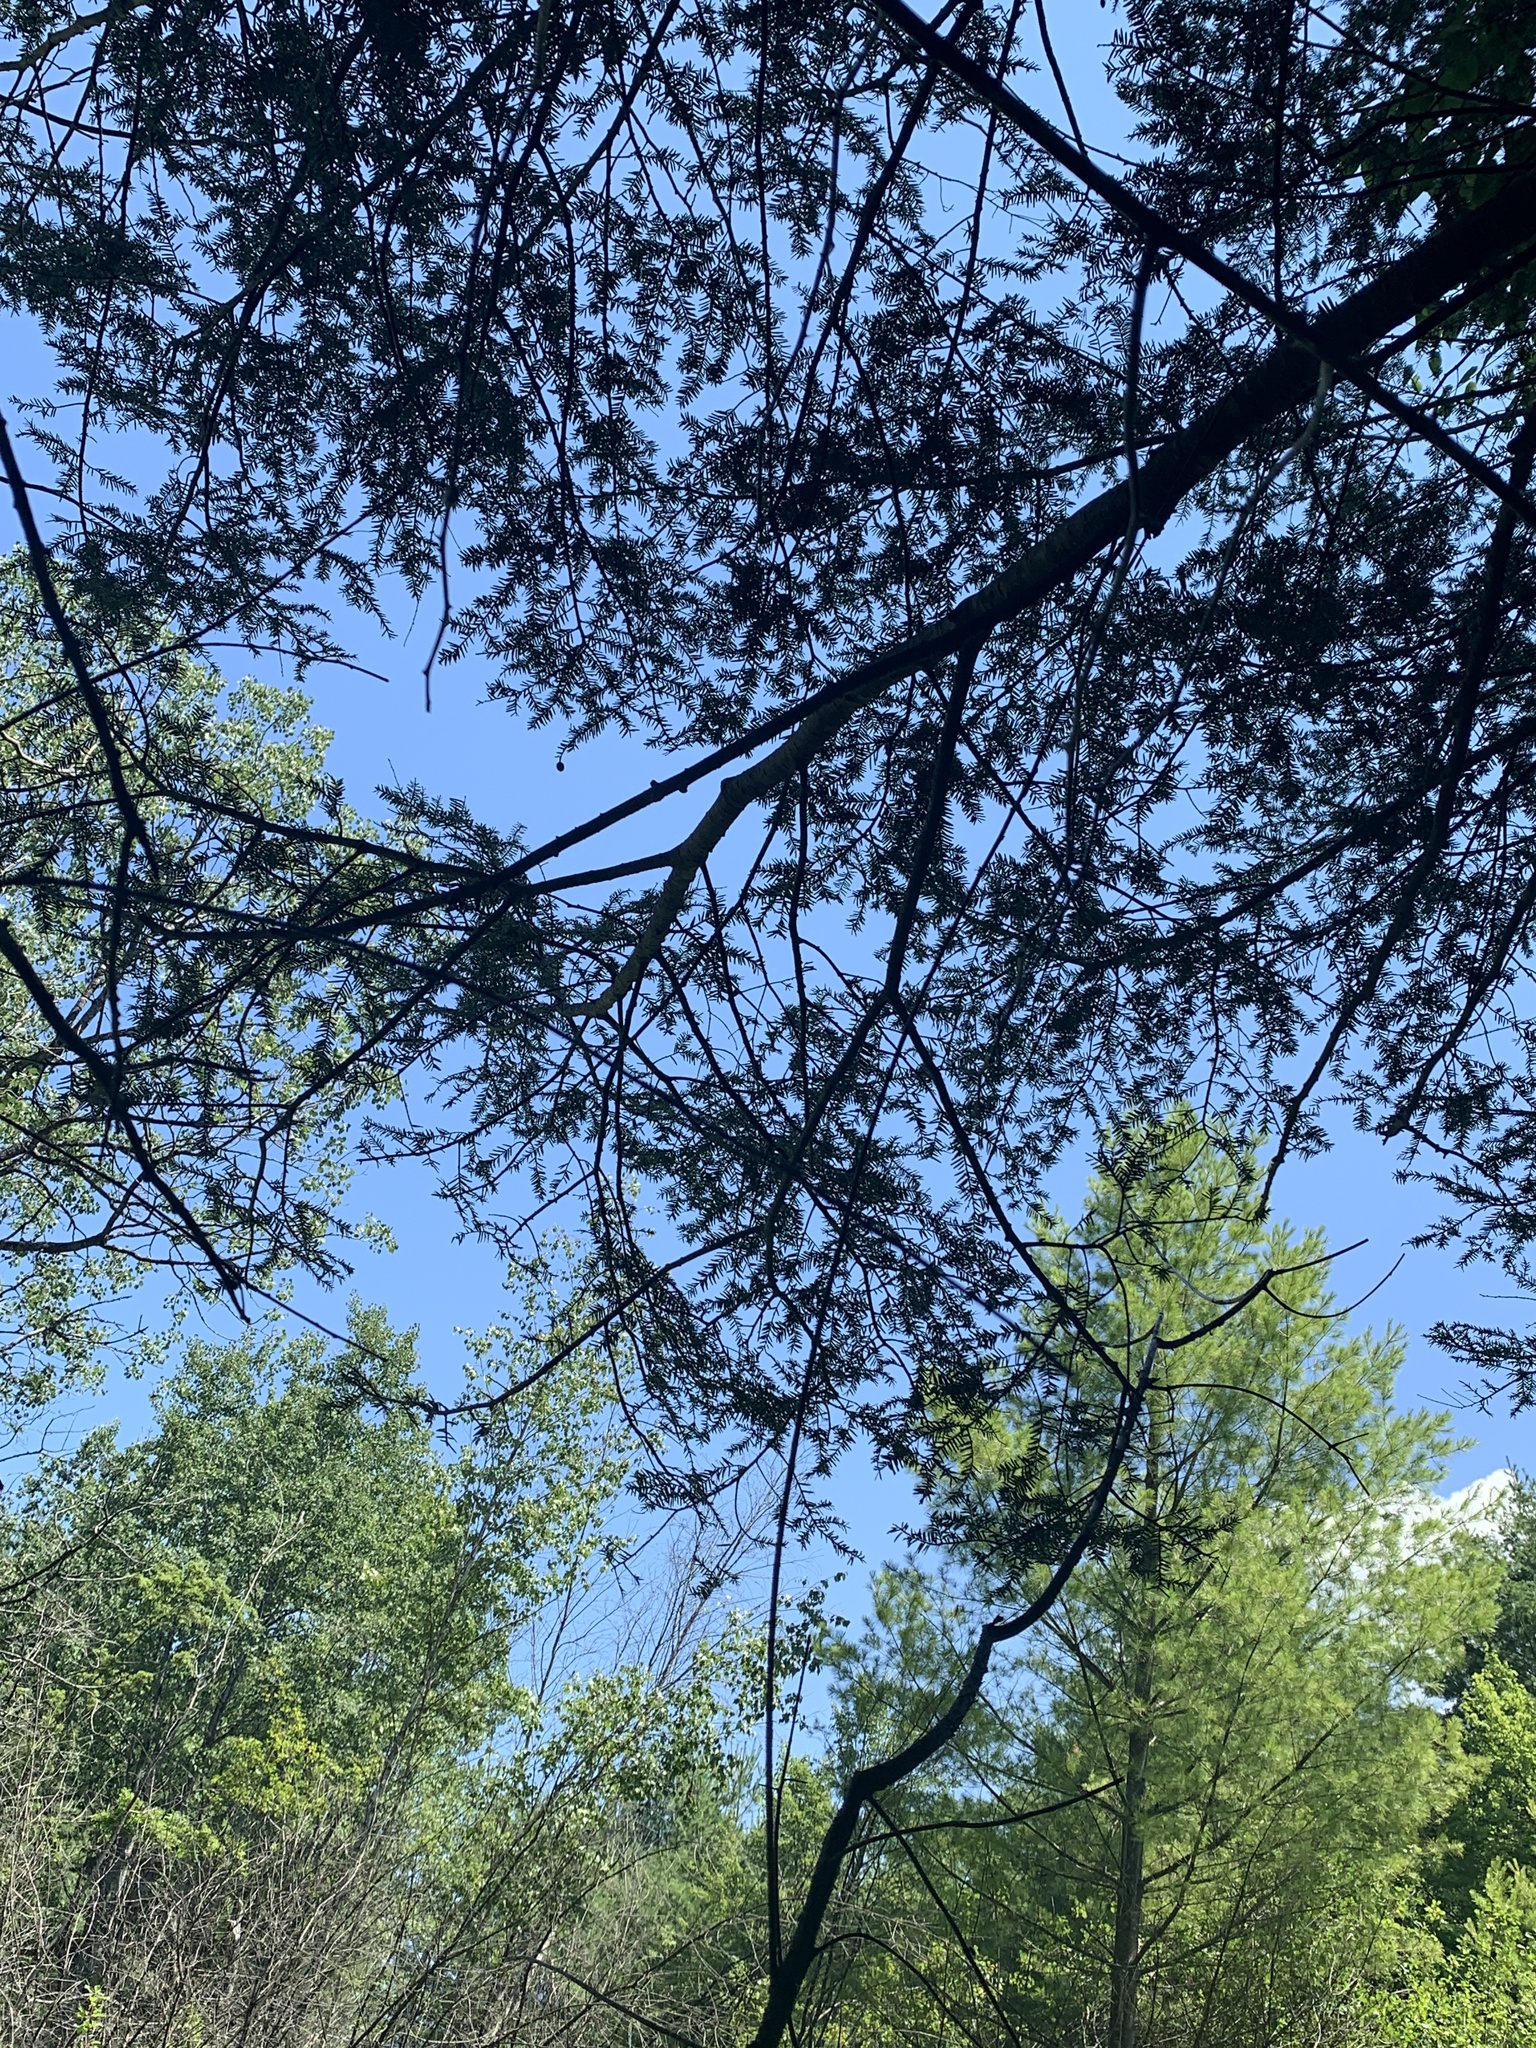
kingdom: Plantae
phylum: Tracheophyta
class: Pinopsida
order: Pinales
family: Pinaceae
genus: Tsuga
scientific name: Tsuga canadensis
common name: Eastern hemlock
